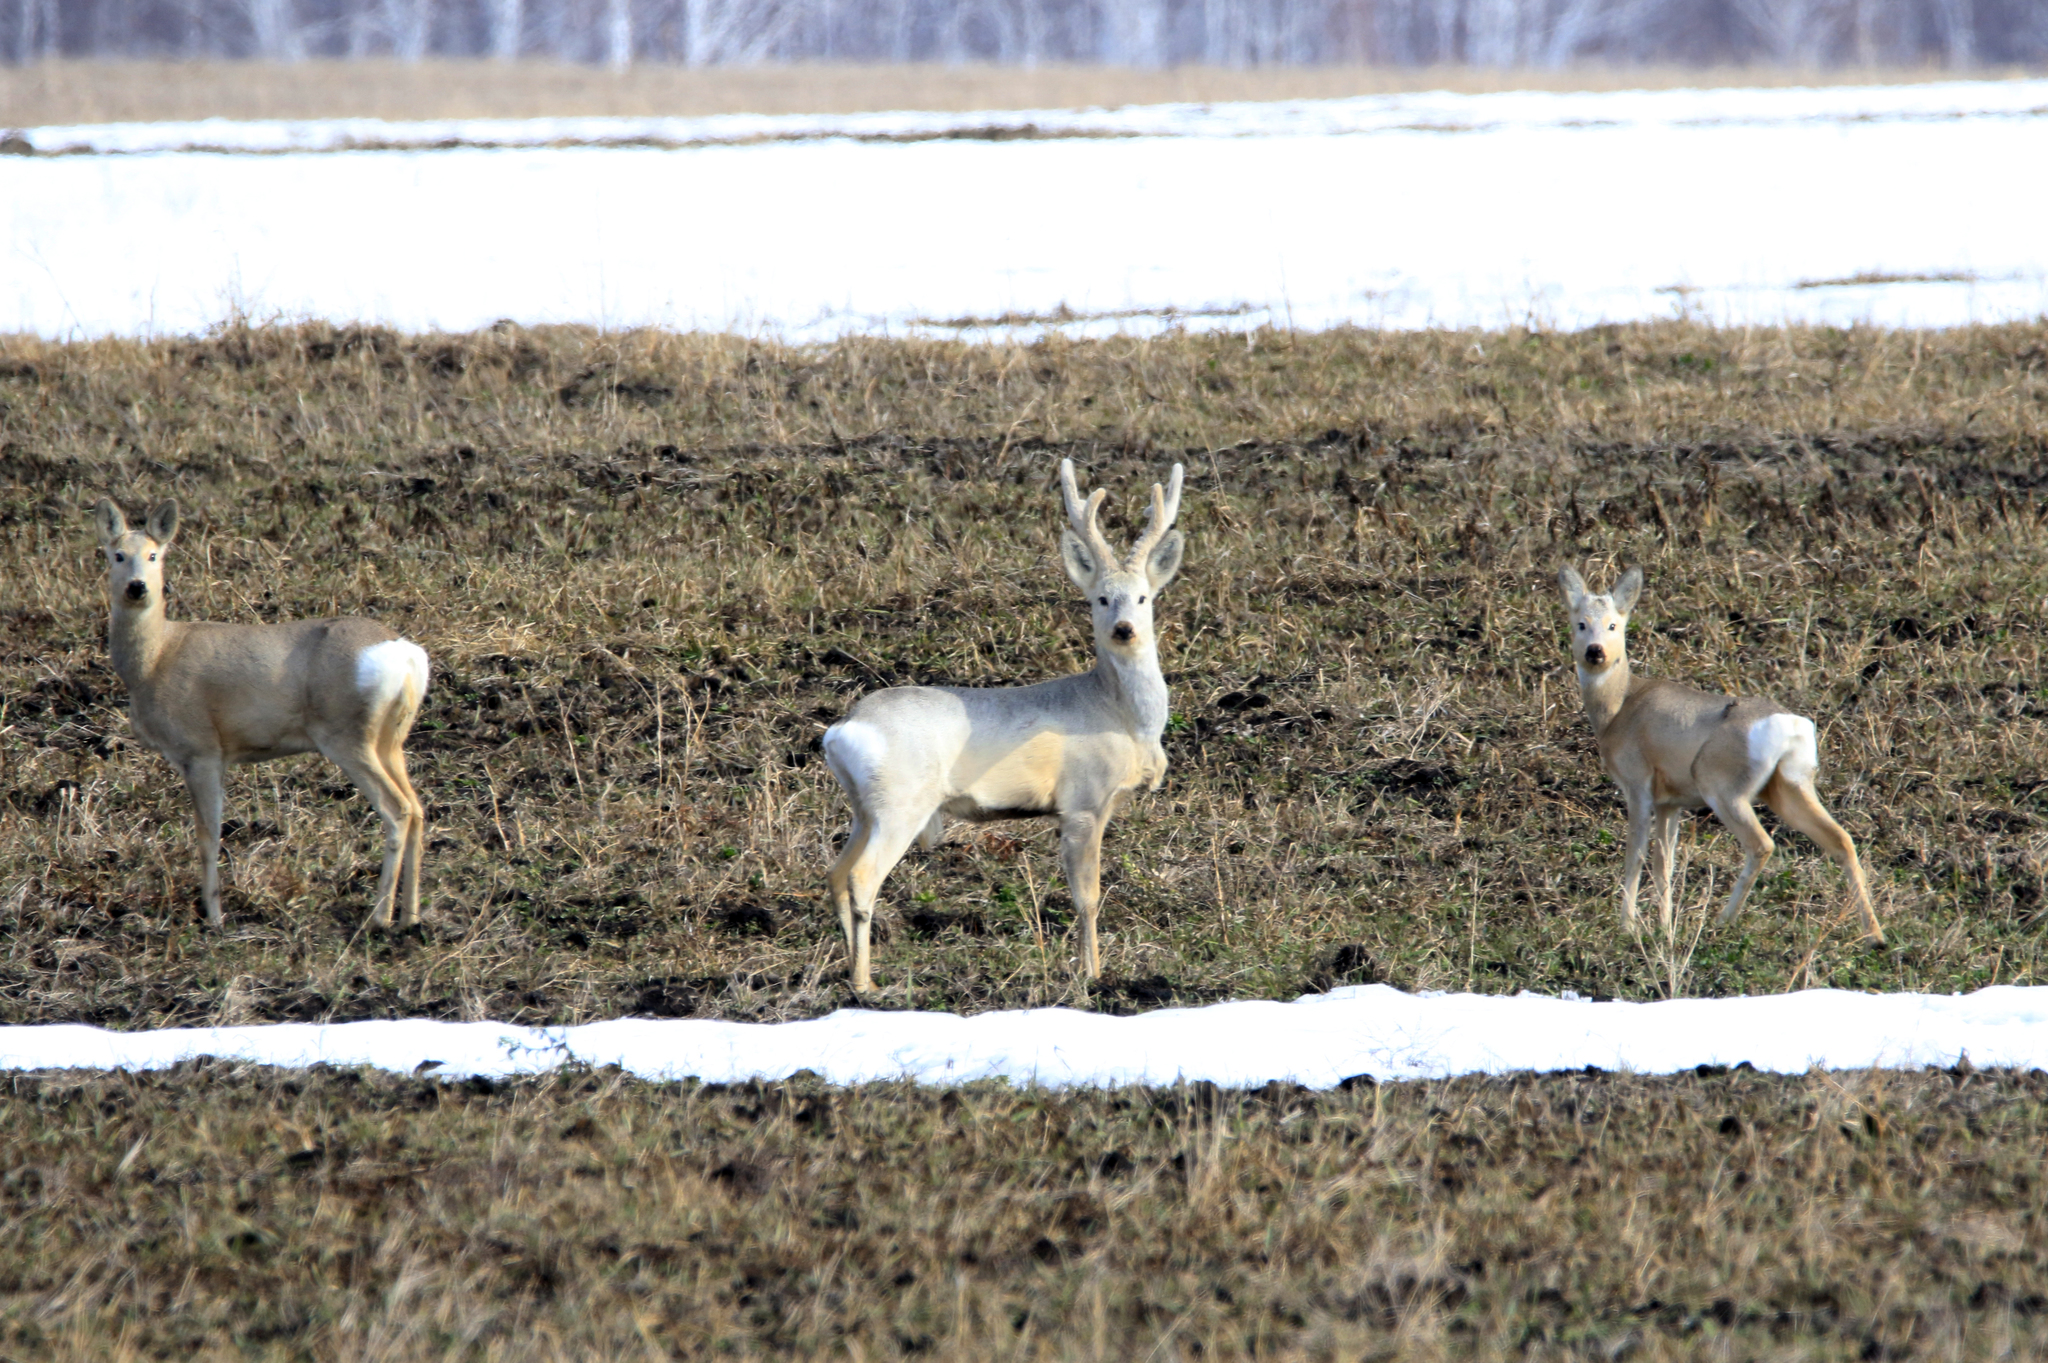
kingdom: Animalia
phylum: Chordata
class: Mammalia
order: Artiodactyla
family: Cervidae
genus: Capreolus
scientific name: Capreolus pygargus
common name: Siberian roe
